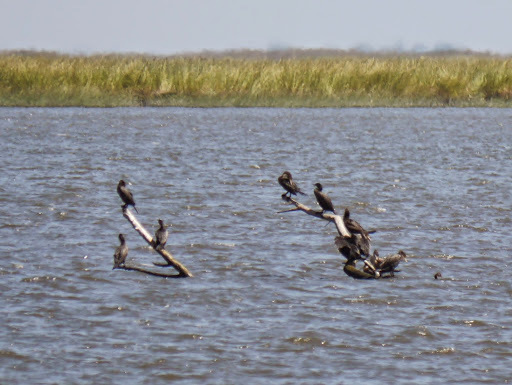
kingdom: Animalia
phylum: Chordata
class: Aves
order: Suliformes
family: Phalacrocoracidae
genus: Phalacrocorax
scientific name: Phalacrocorax auritus
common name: Double-crested cormorant
